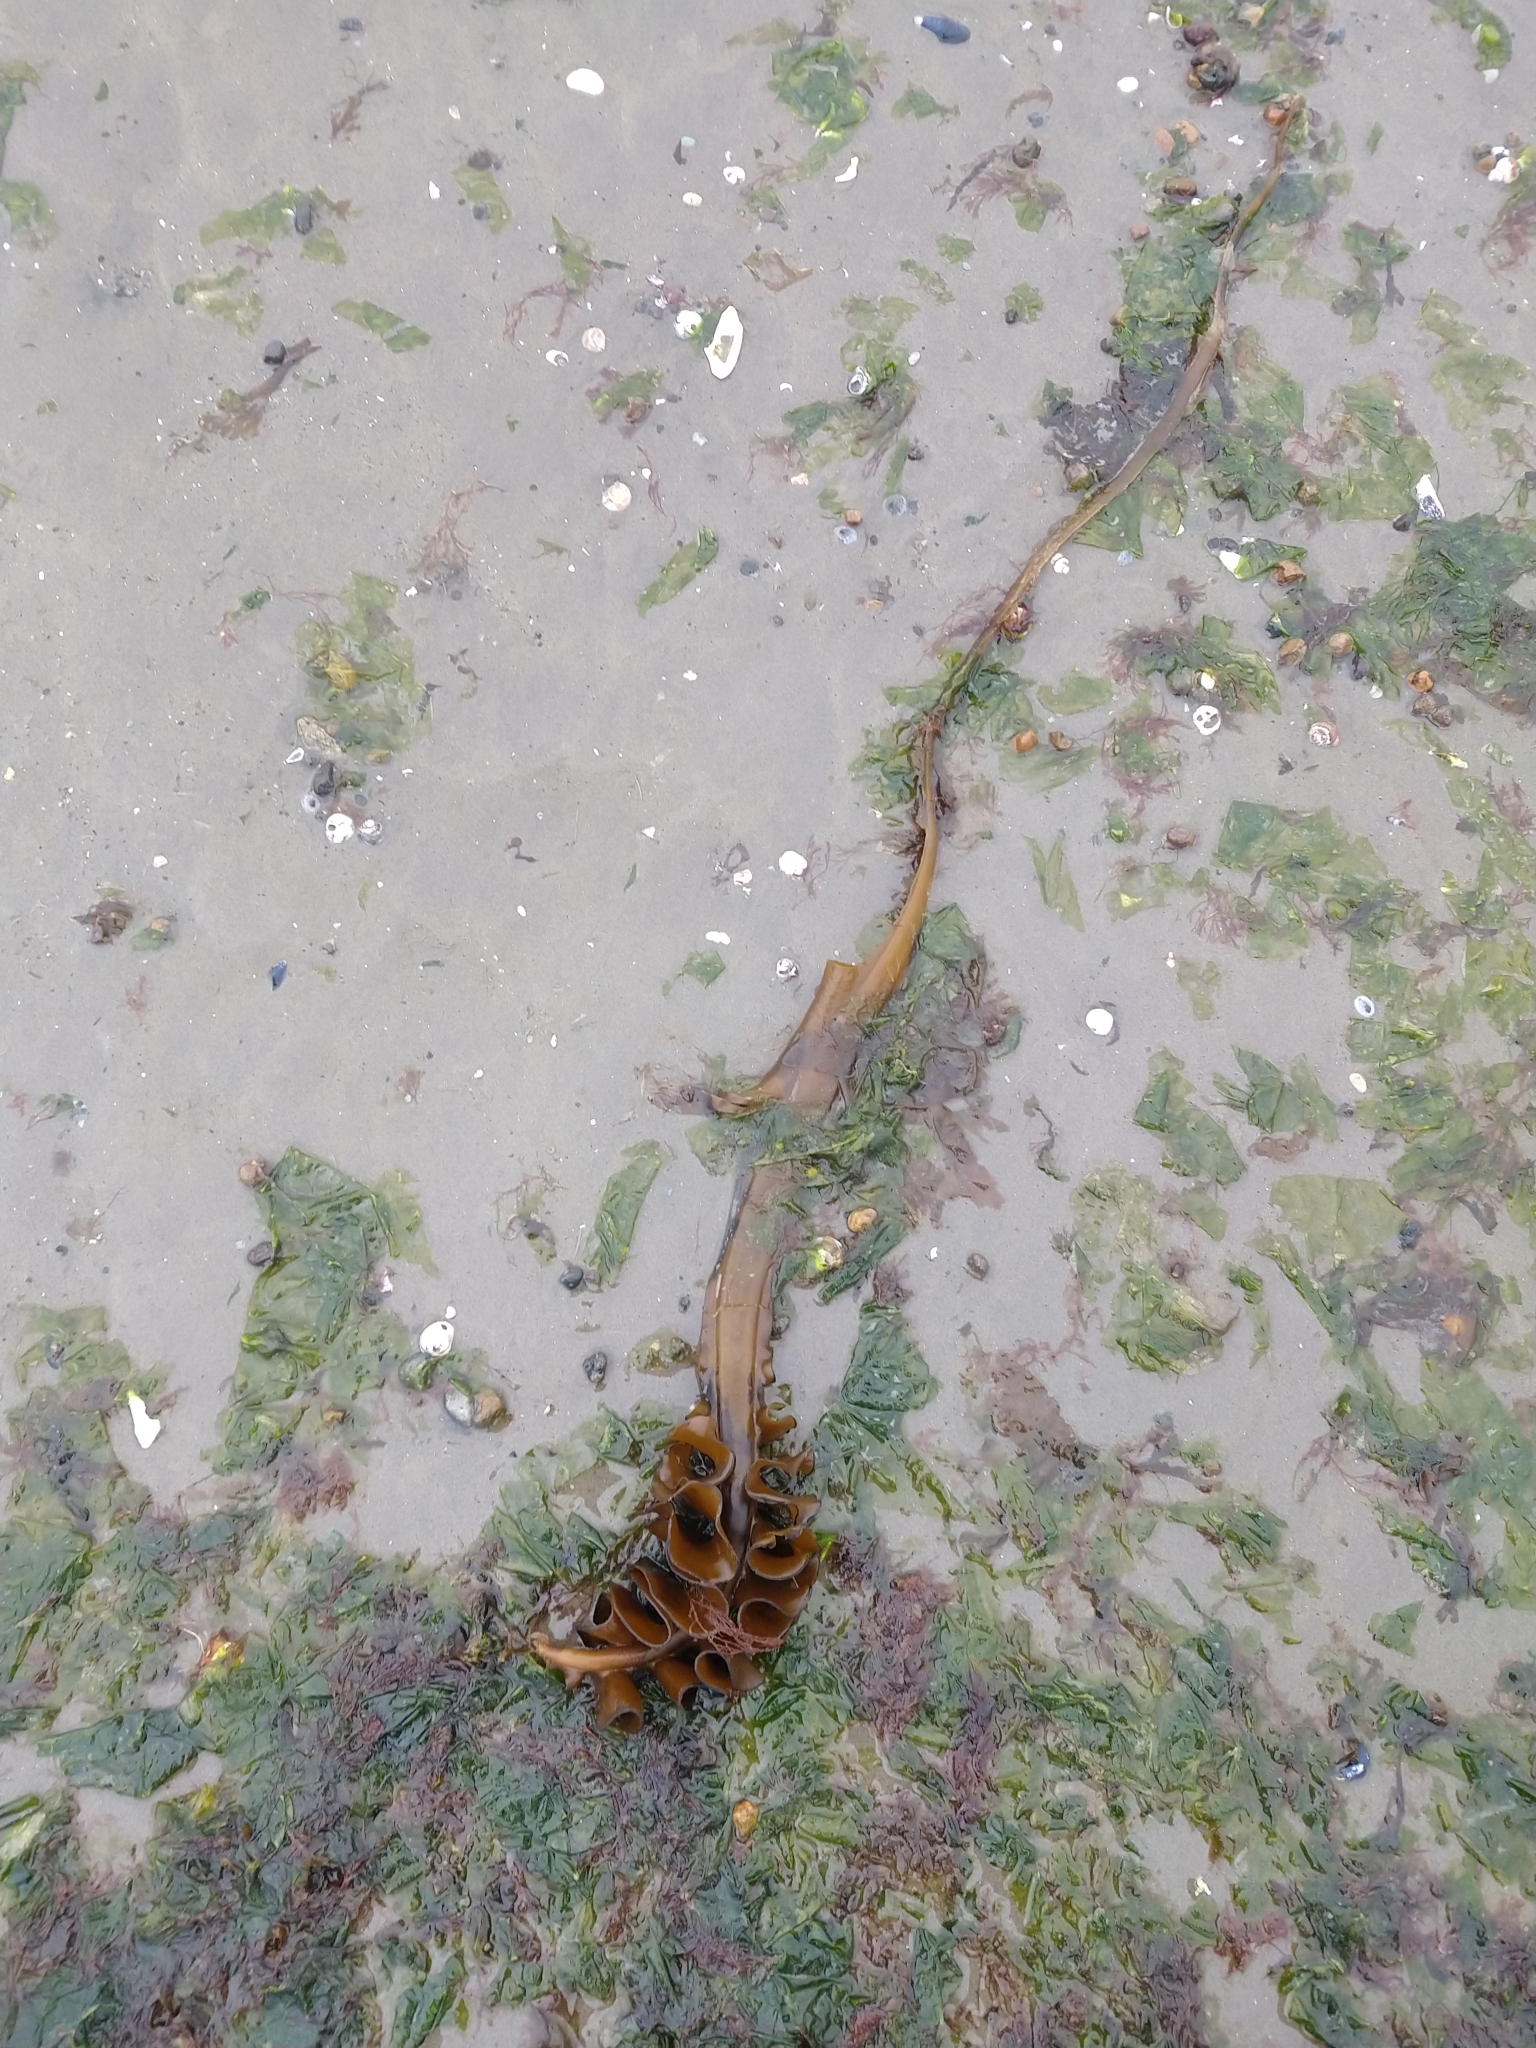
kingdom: Chromista
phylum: Ochrophyta
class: Phaeophyceae
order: Laminariales
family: Alariaceae
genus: Undaria
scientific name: Undaria pinnatifida
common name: Asian kelp
